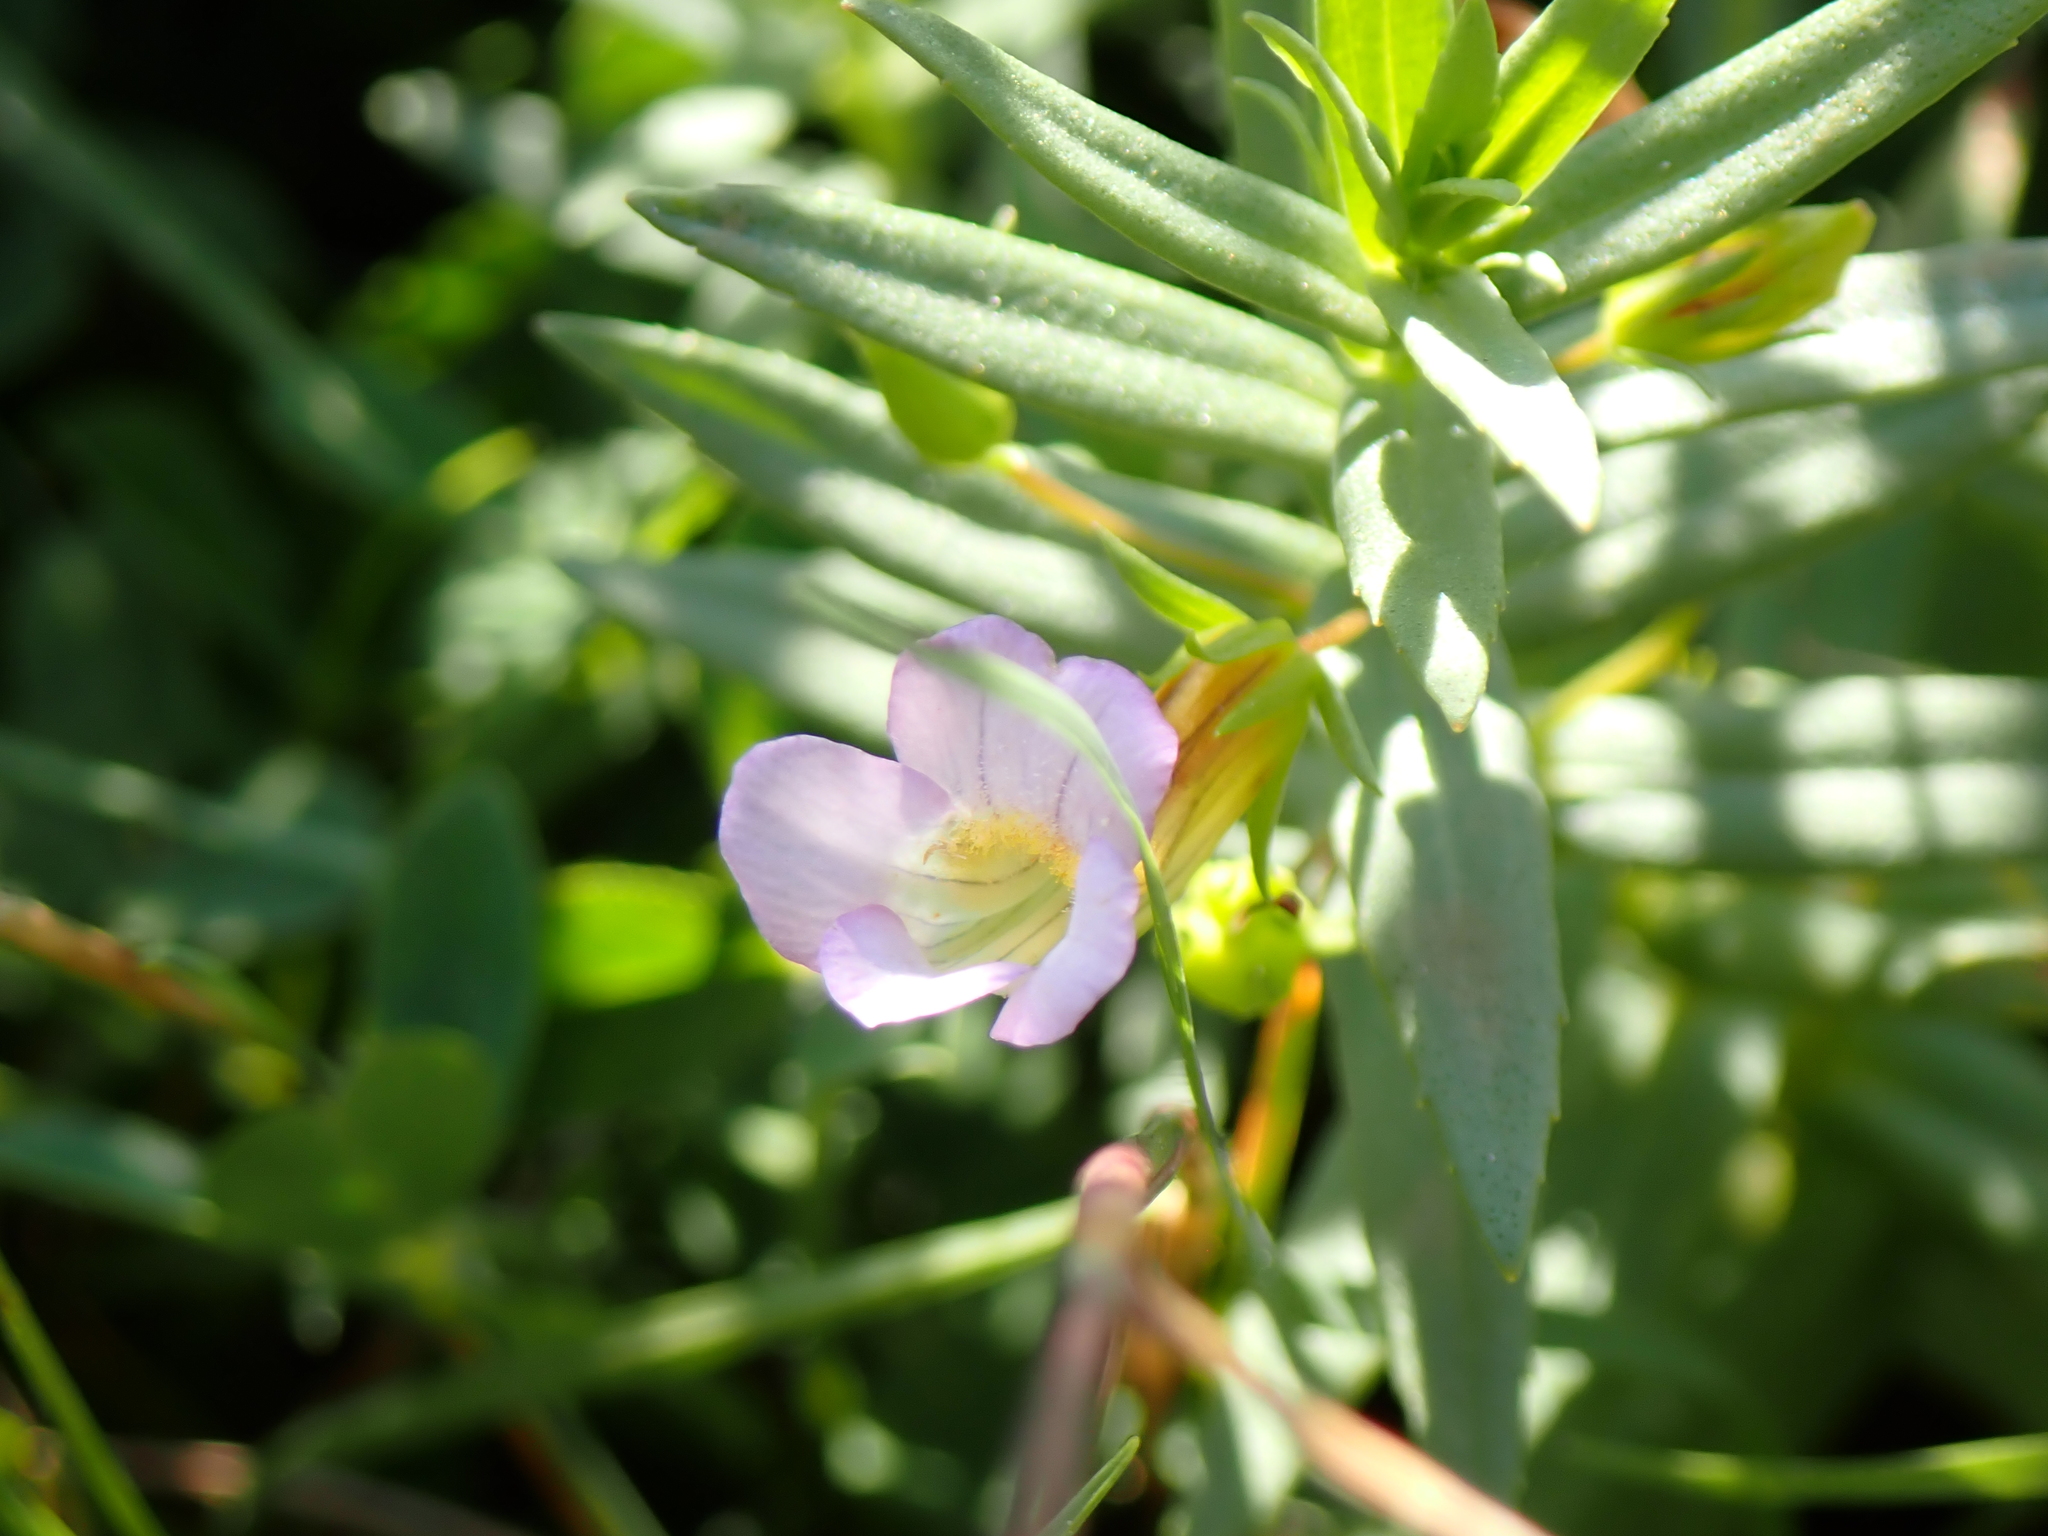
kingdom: Plantae
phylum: Tracheophyta
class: Magnoliopsida
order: Lamiales
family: Plantaginaceae
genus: Gratiola
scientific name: Gratiola officinalis
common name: Gratiola
